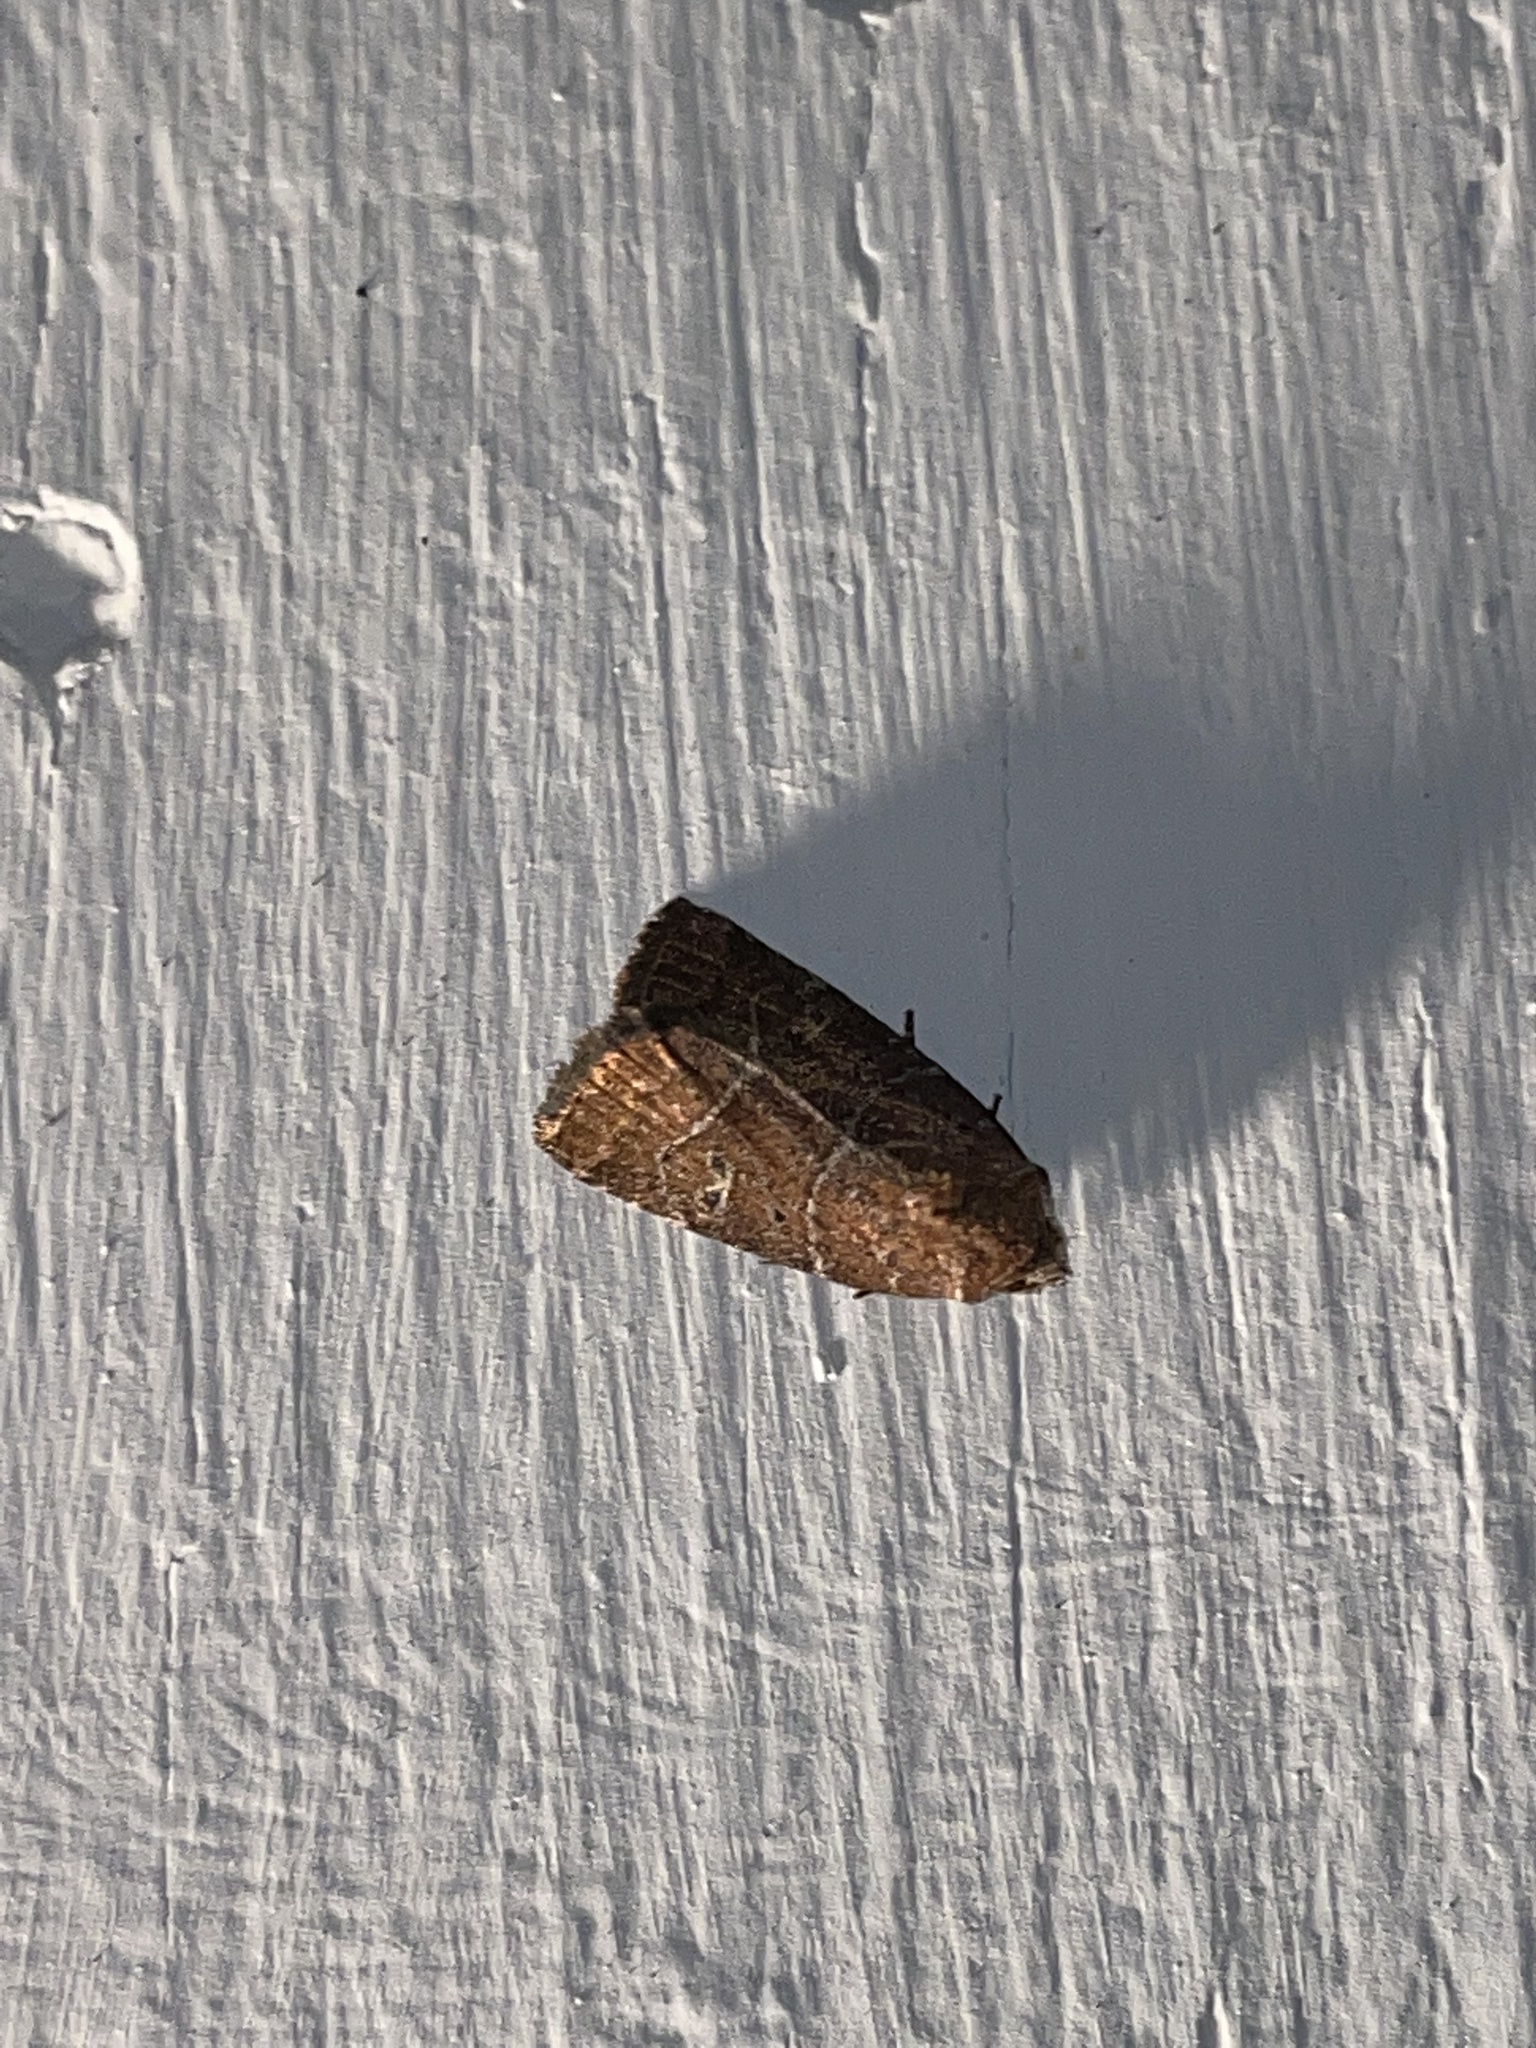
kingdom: Animalia
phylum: Arthropoda
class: Insecta
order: Lepidoptera
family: Noctuidae
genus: Elaphria
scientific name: Elaphria grata
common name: Grateful midget moth
